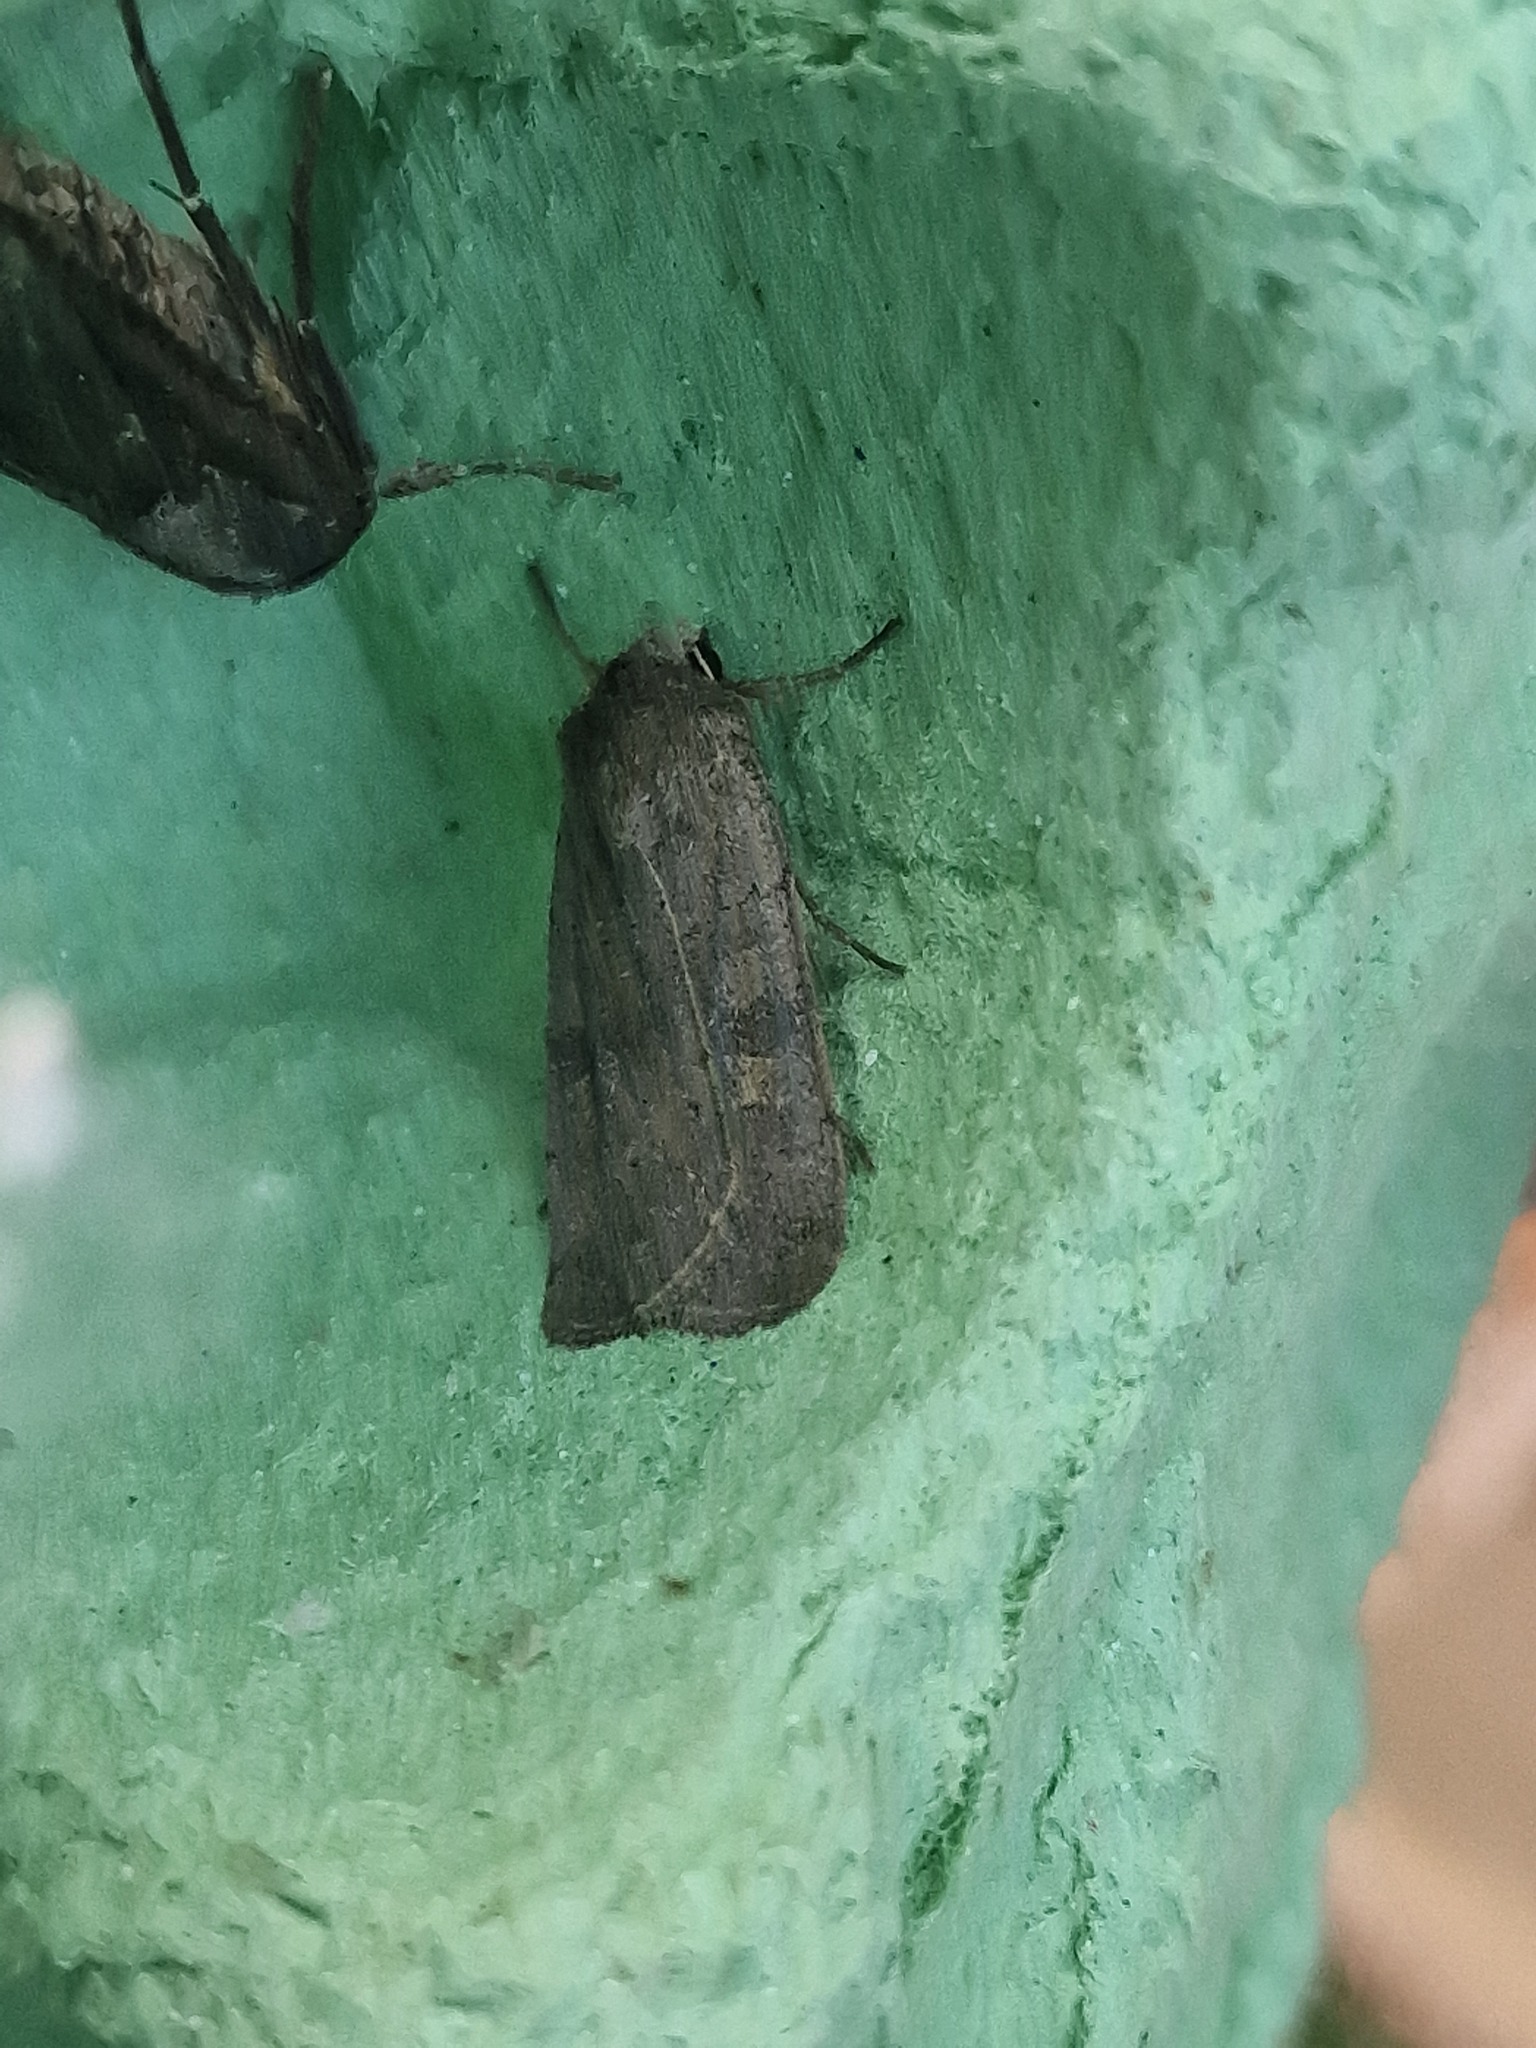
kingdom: Animalia
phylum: Arthropoda
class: Insecta
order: Lepidoptera
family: Noctuidae
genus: Xestia
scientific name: Xestia xanthographa
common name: Square-spot rustic
